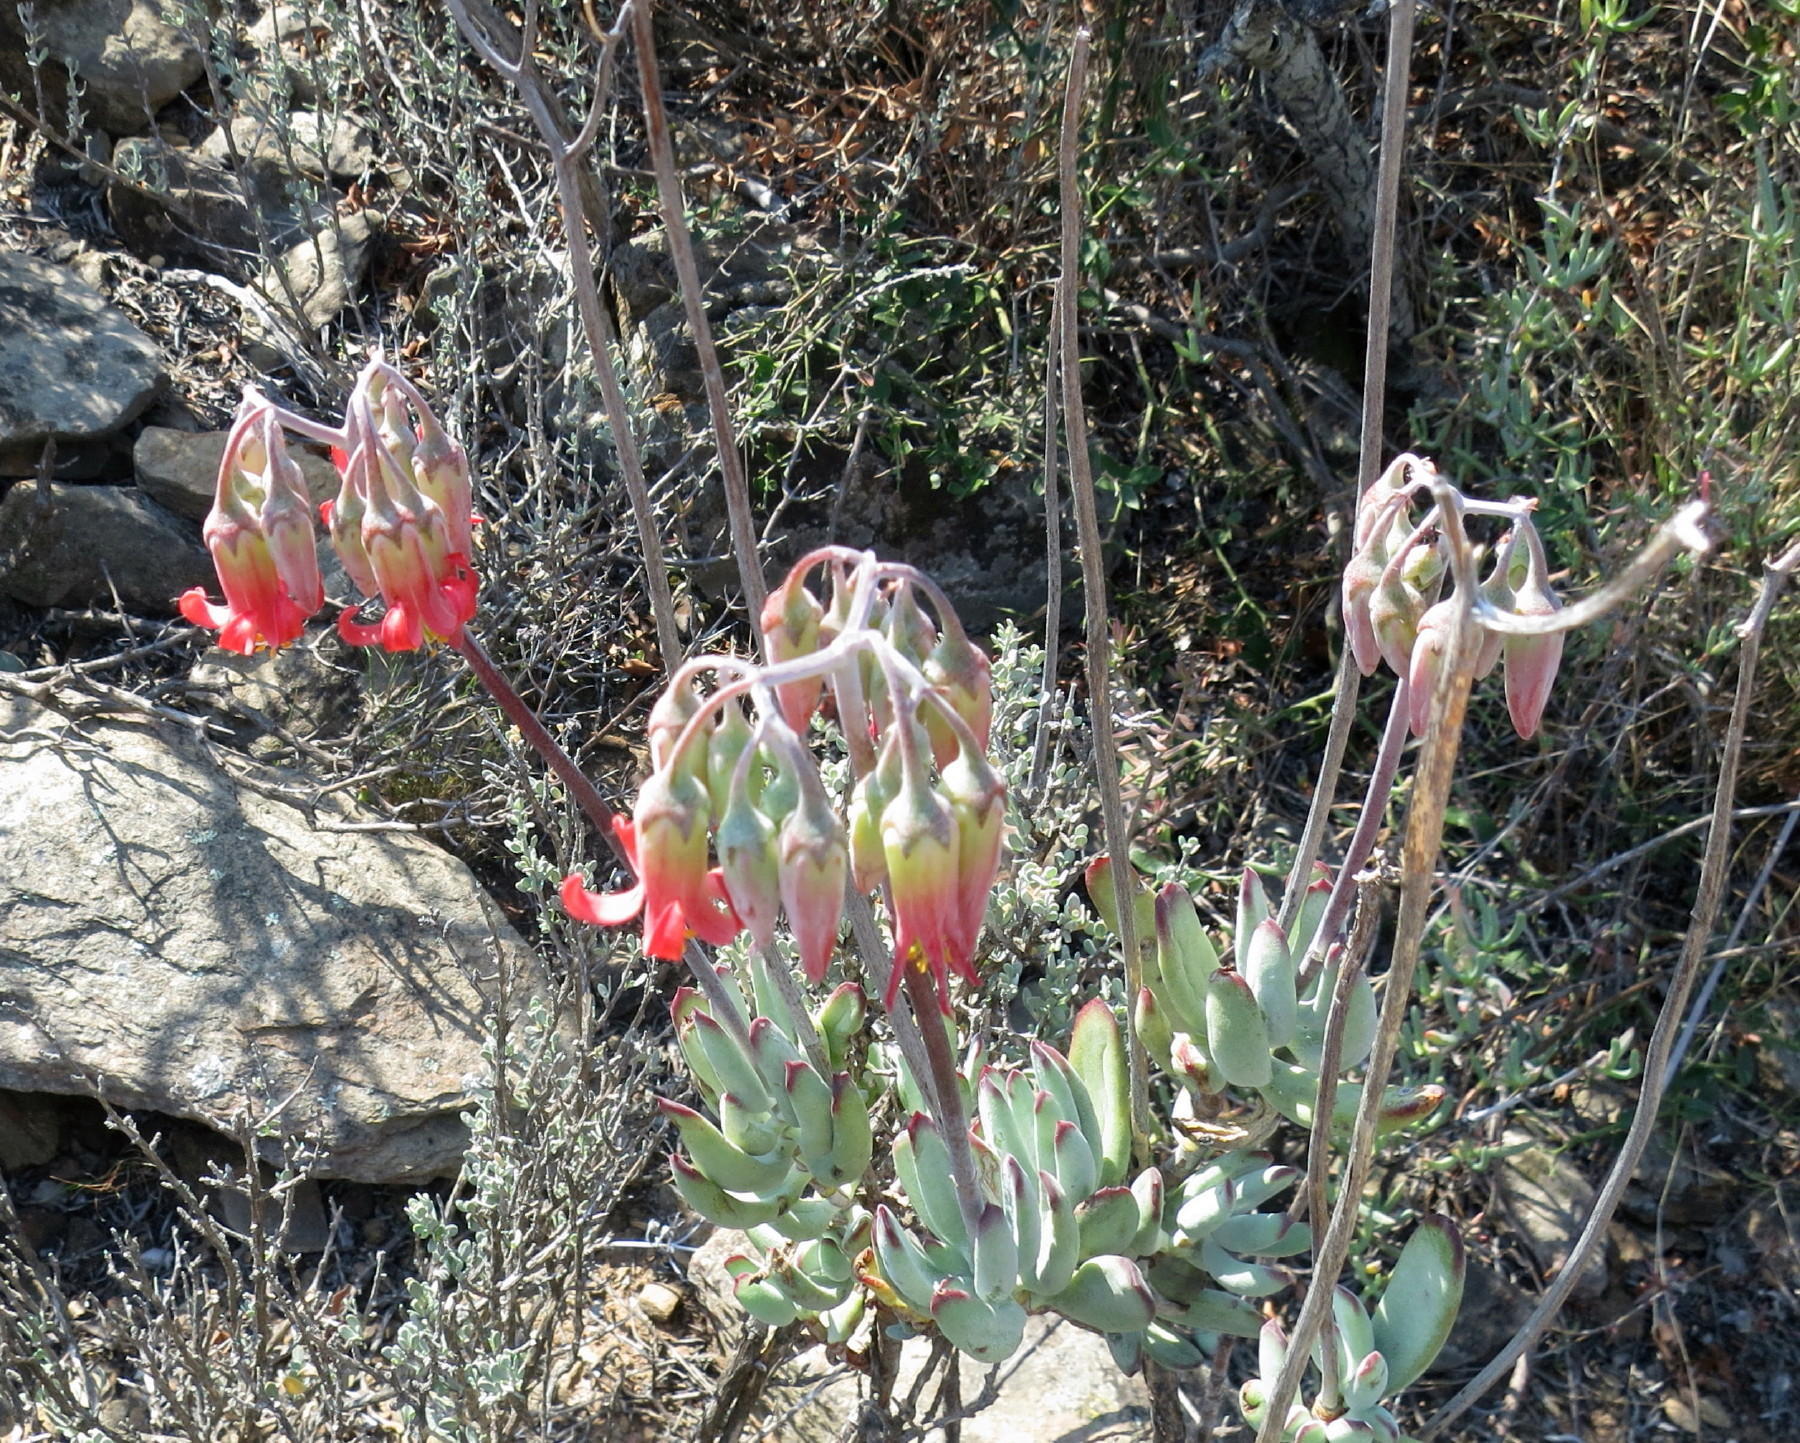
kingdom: Plantae
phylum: Tracheophyta
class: Magnoliopsida
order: Saxifragales
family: Crassulaceae
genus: Cotyledon
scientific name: Cotyledon orbiculata
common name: Pig's ear
